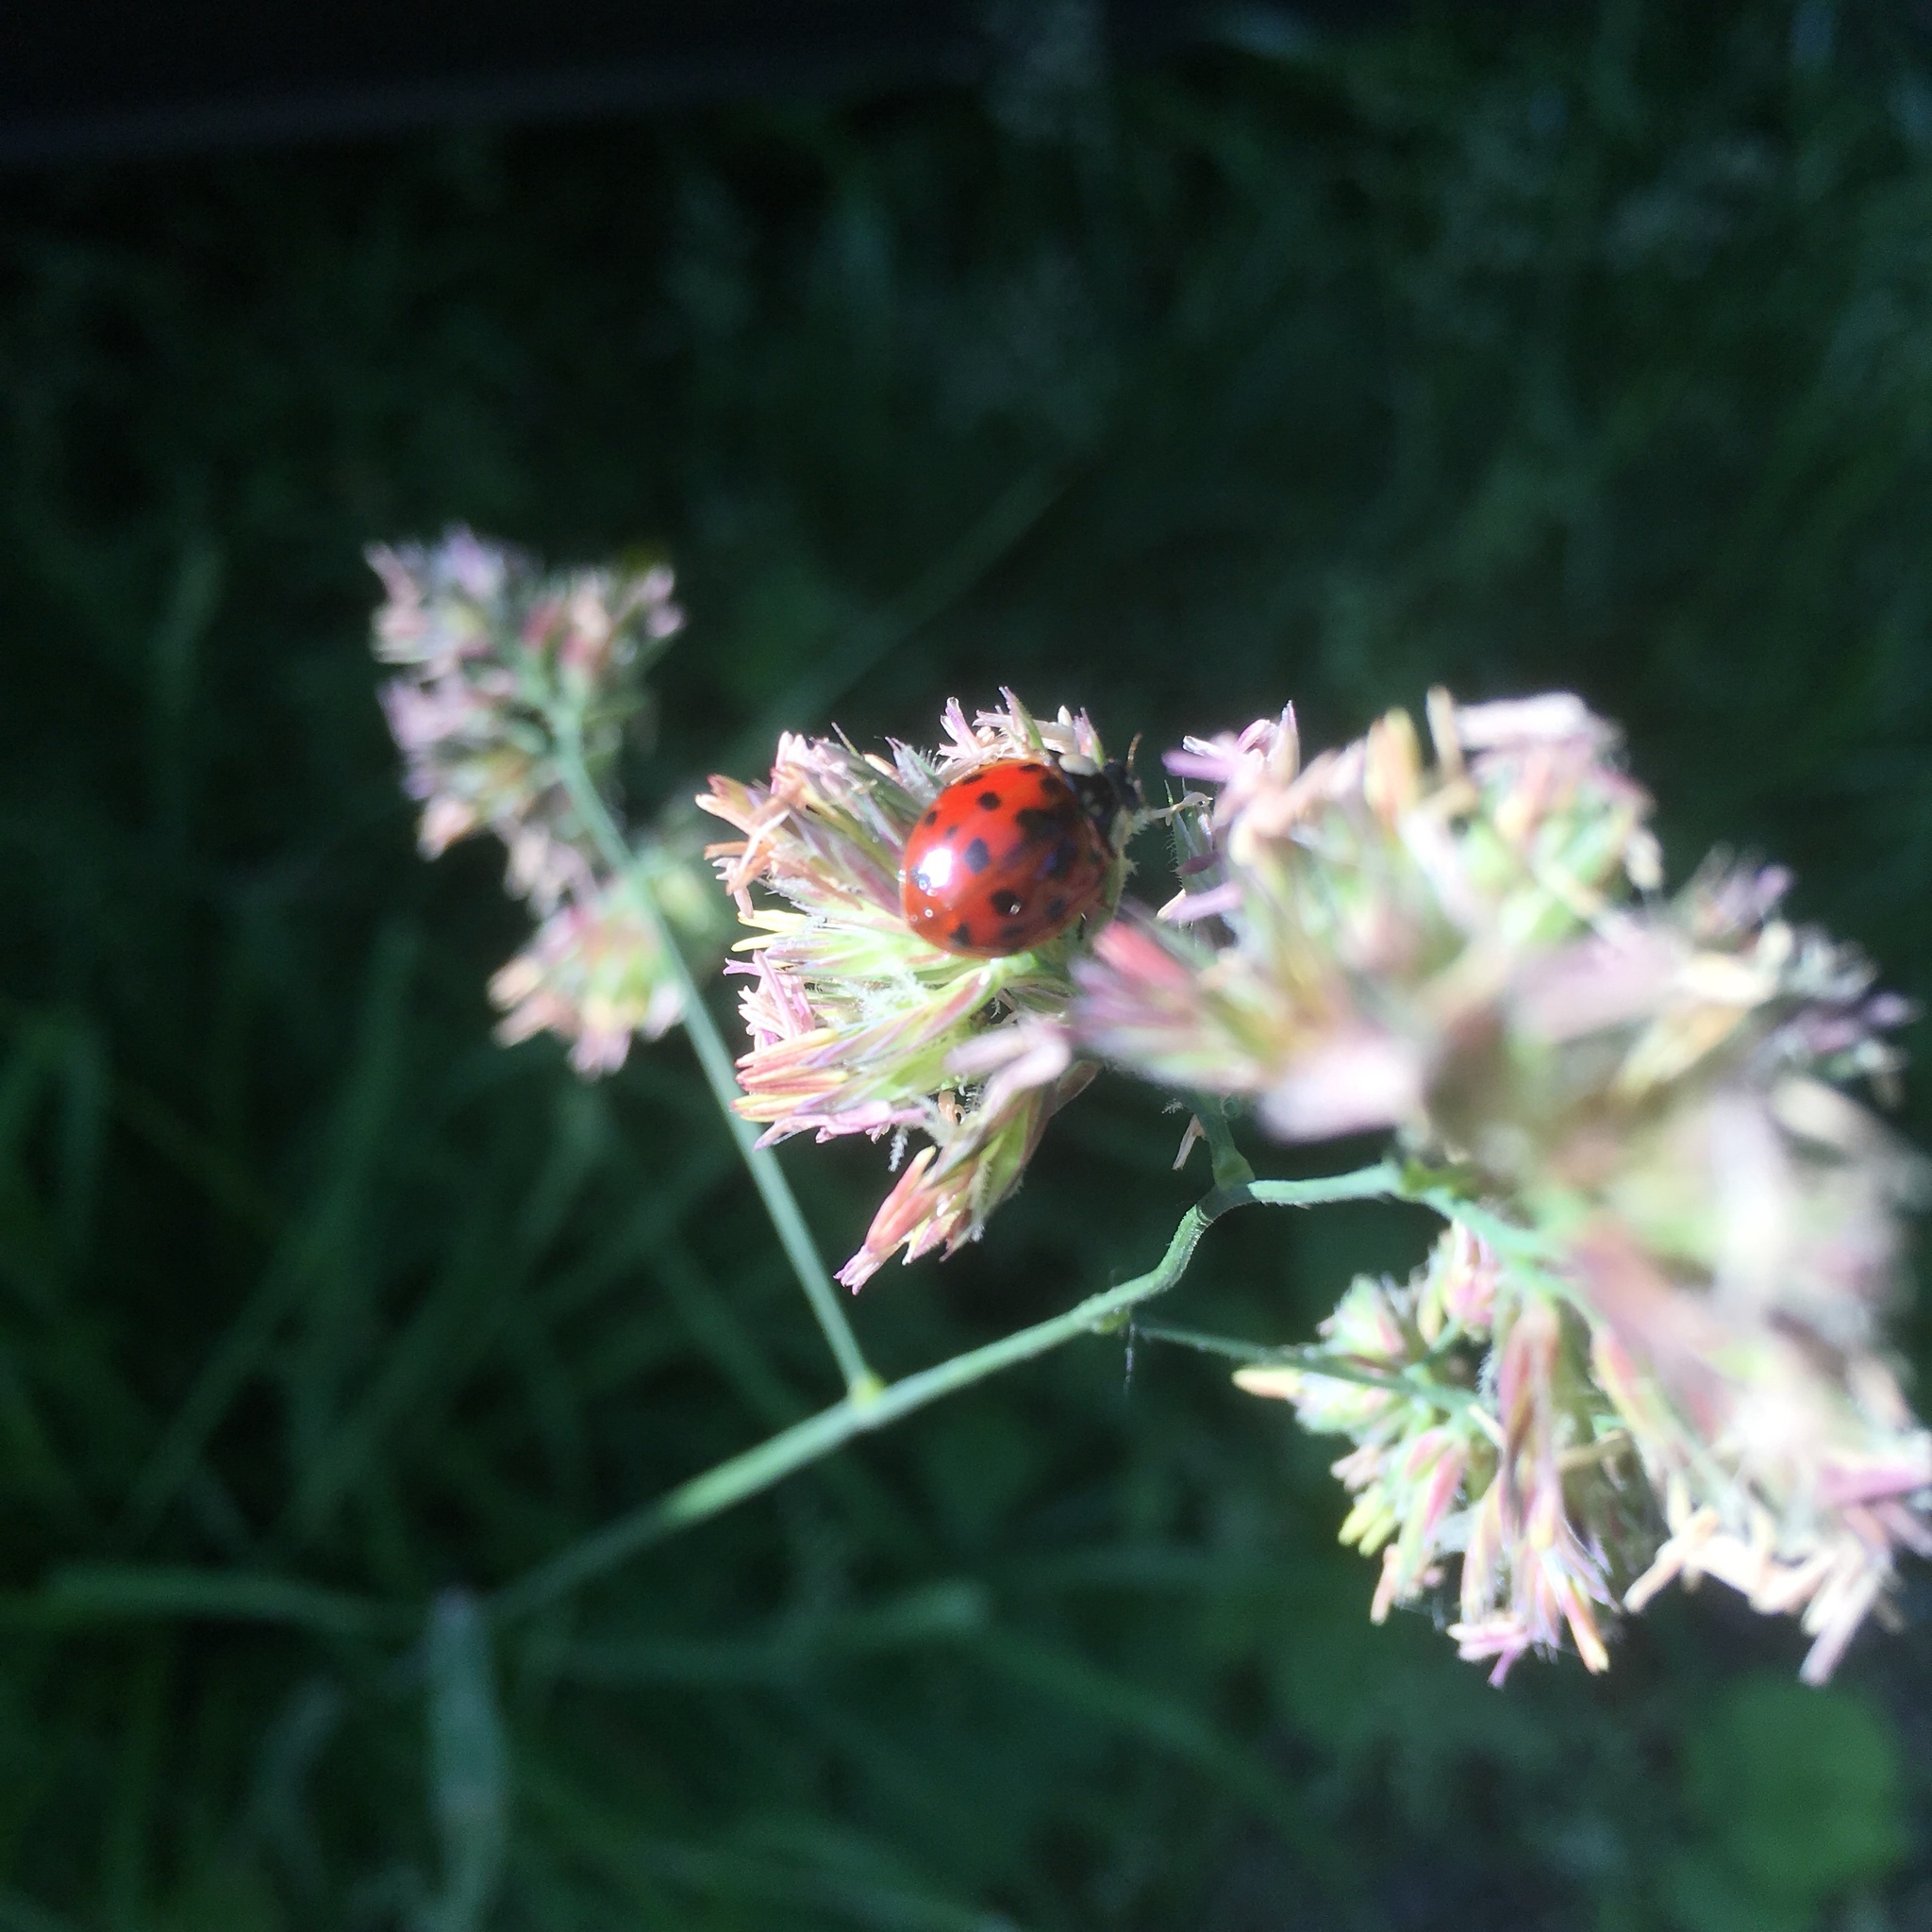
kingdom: Animalia
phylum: Arthropoda
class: Insecta
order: Coleoptera
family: Coccinellidae
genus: Harmonia
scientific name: Harmonia axyridis
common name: Harlequin ladybird
